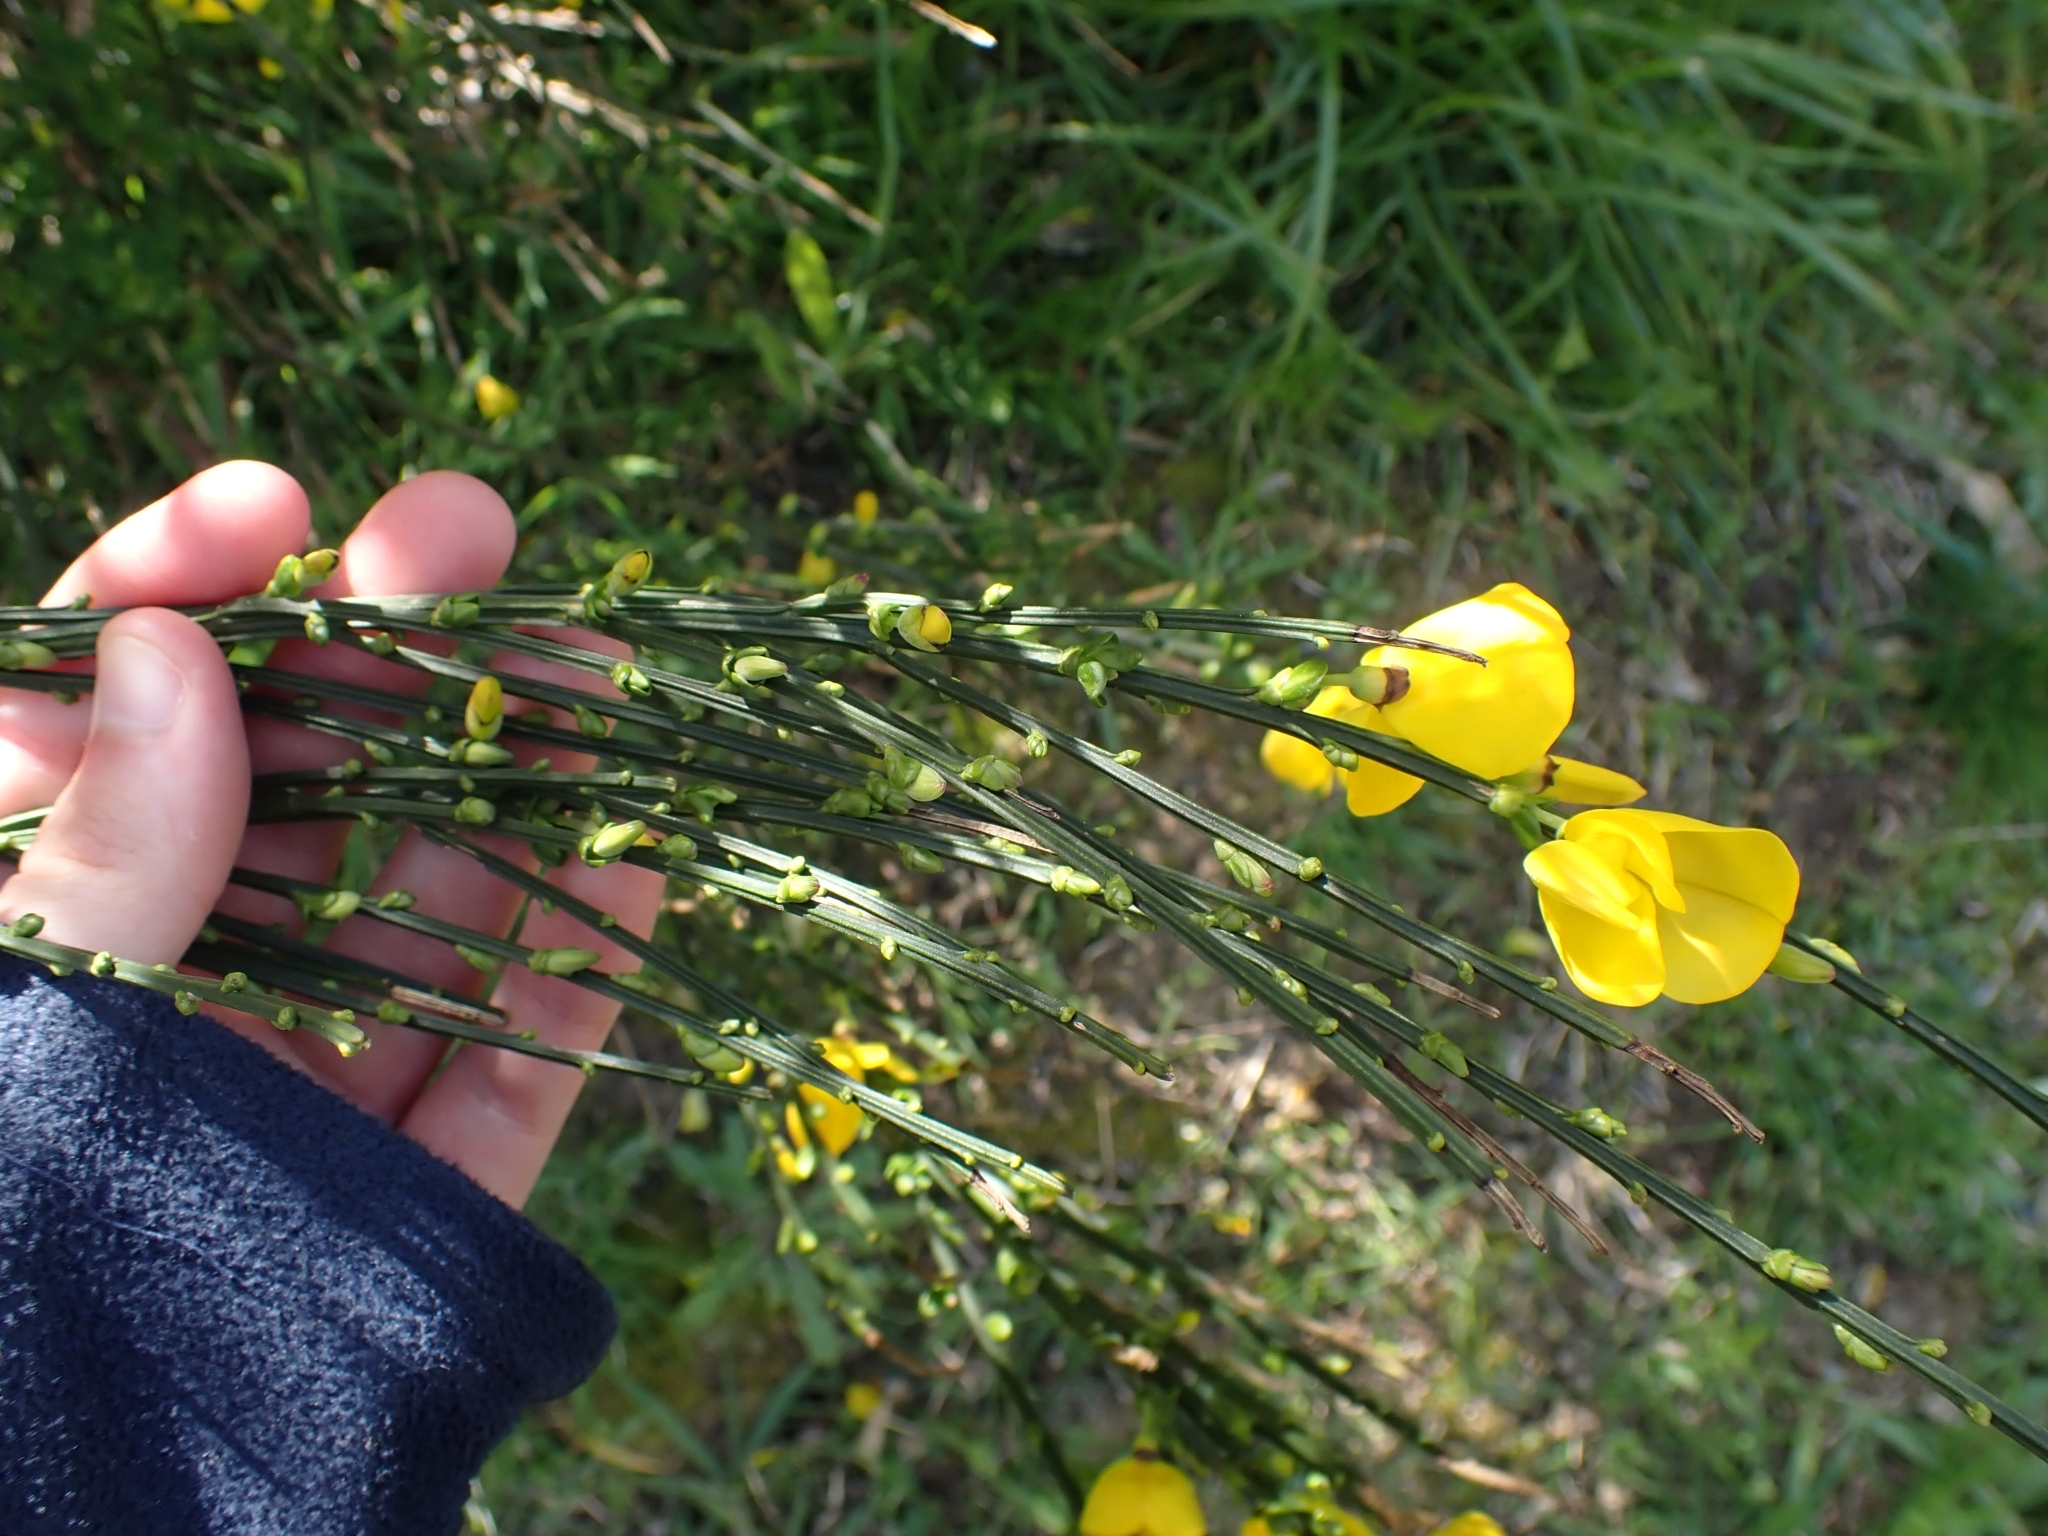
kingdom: Plantae
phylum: Tracheophyta
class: Magnoliopsida
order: Fabales
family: Fabaceae
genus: Cytisus
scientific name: Cytisus scoparius
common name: Scotch broom
